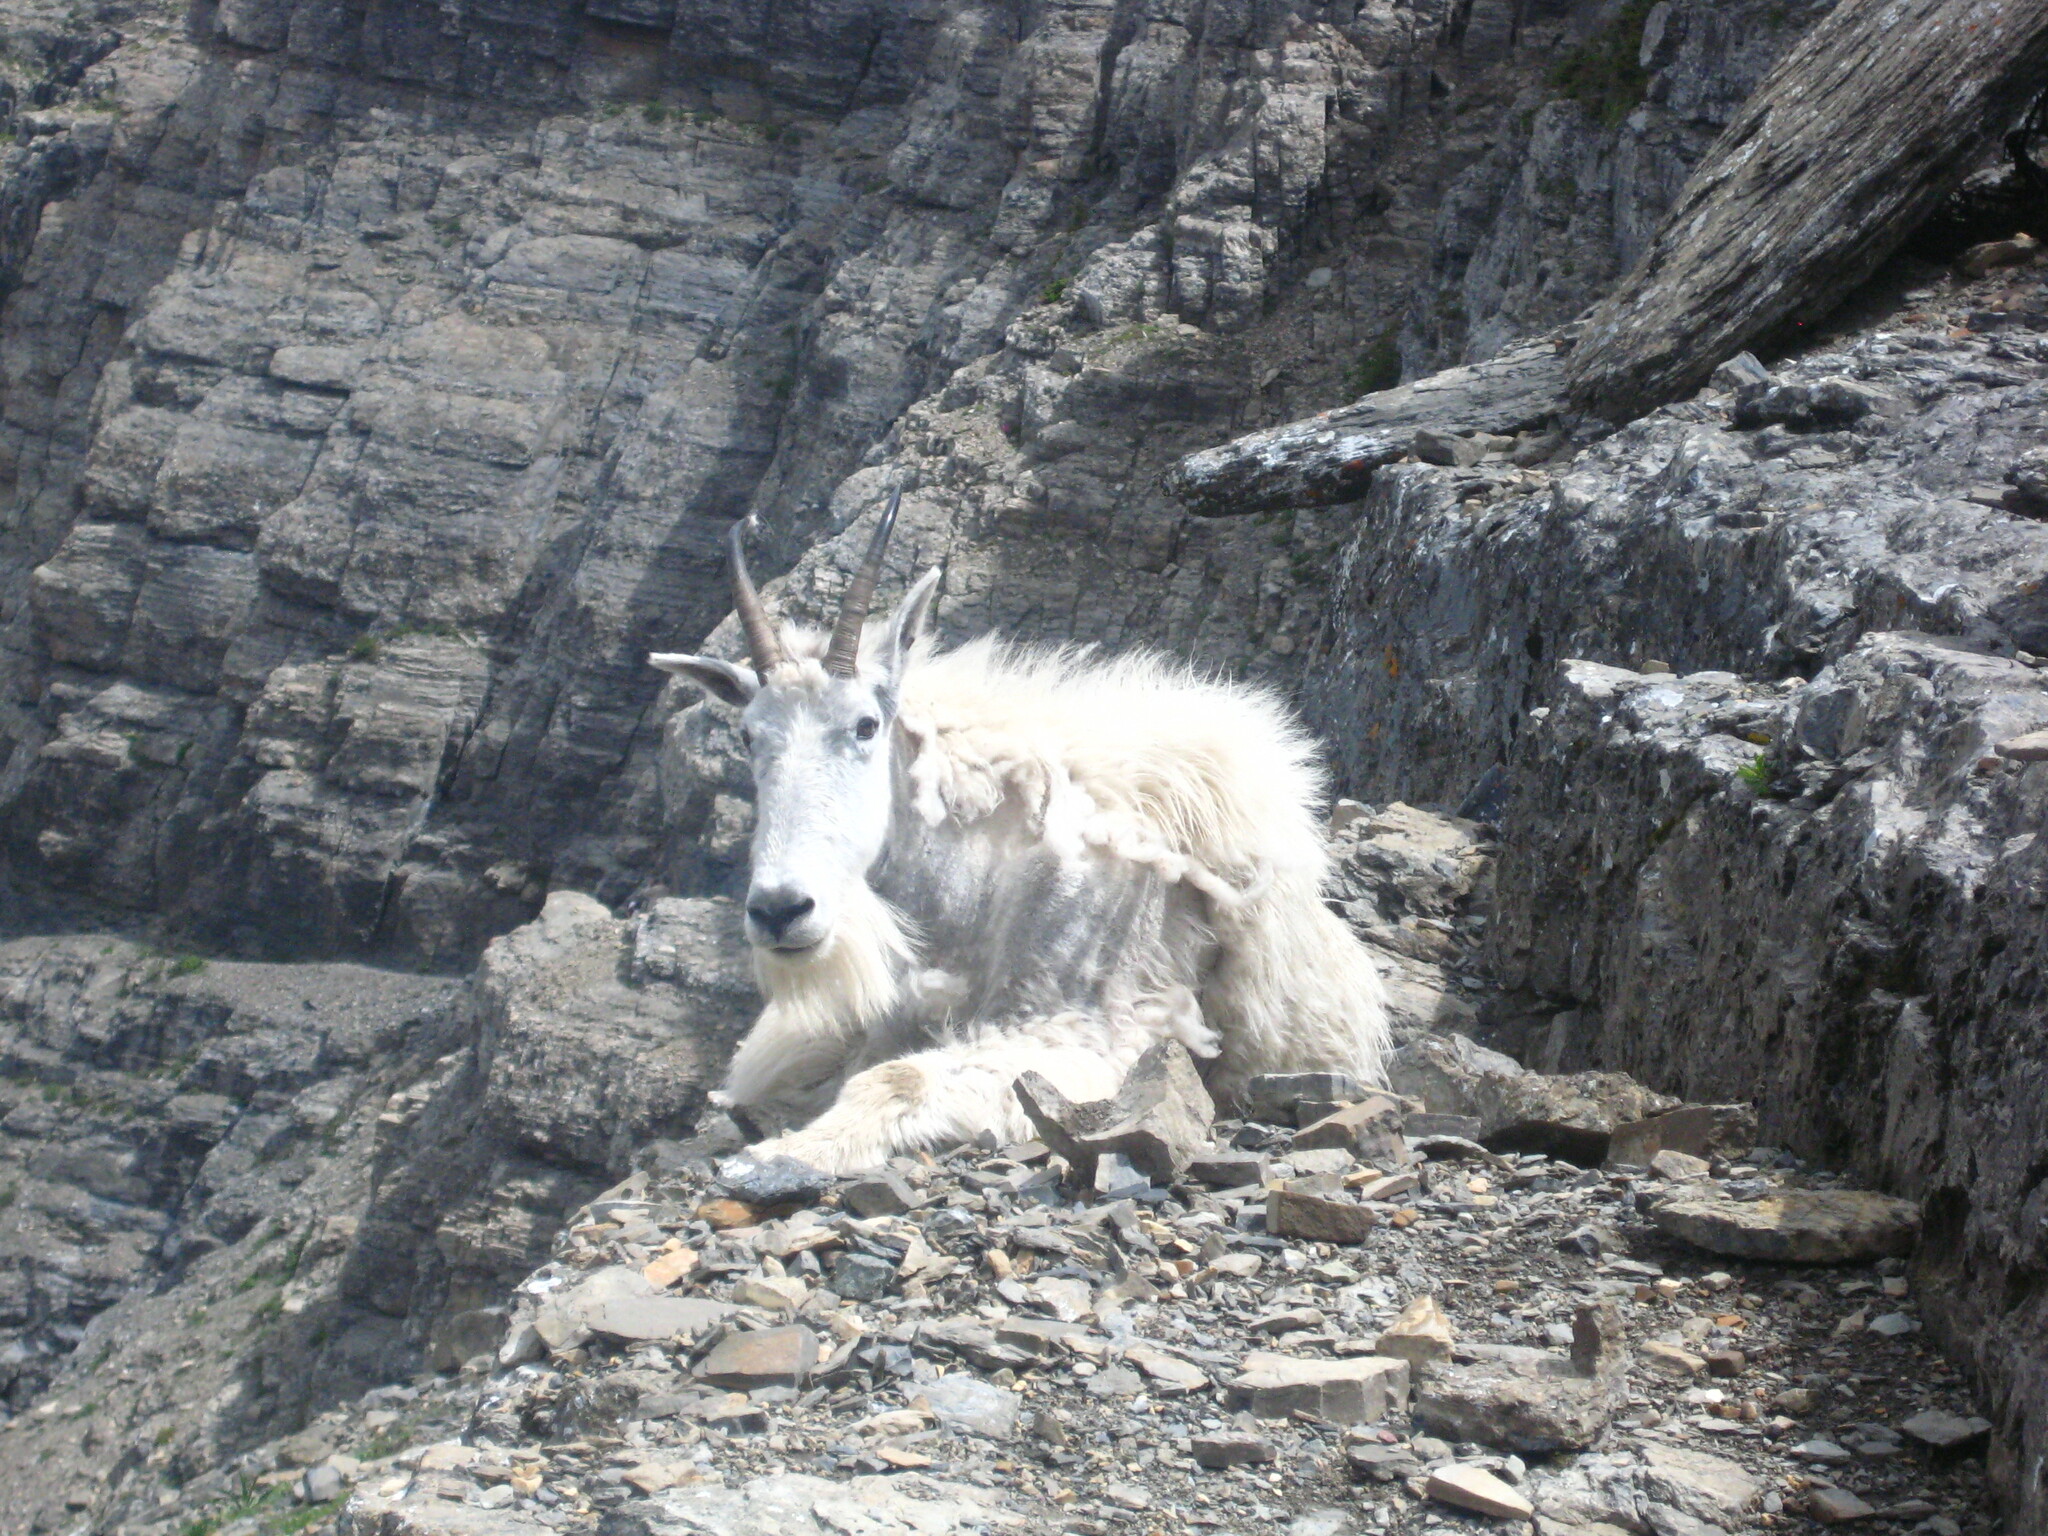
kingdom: Animalia
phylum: Chordata
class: Mammalia
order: Artiodactyla
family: Bovidae
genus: Oreamnos
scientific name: Oreamnos americanus
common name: Mountain goat
